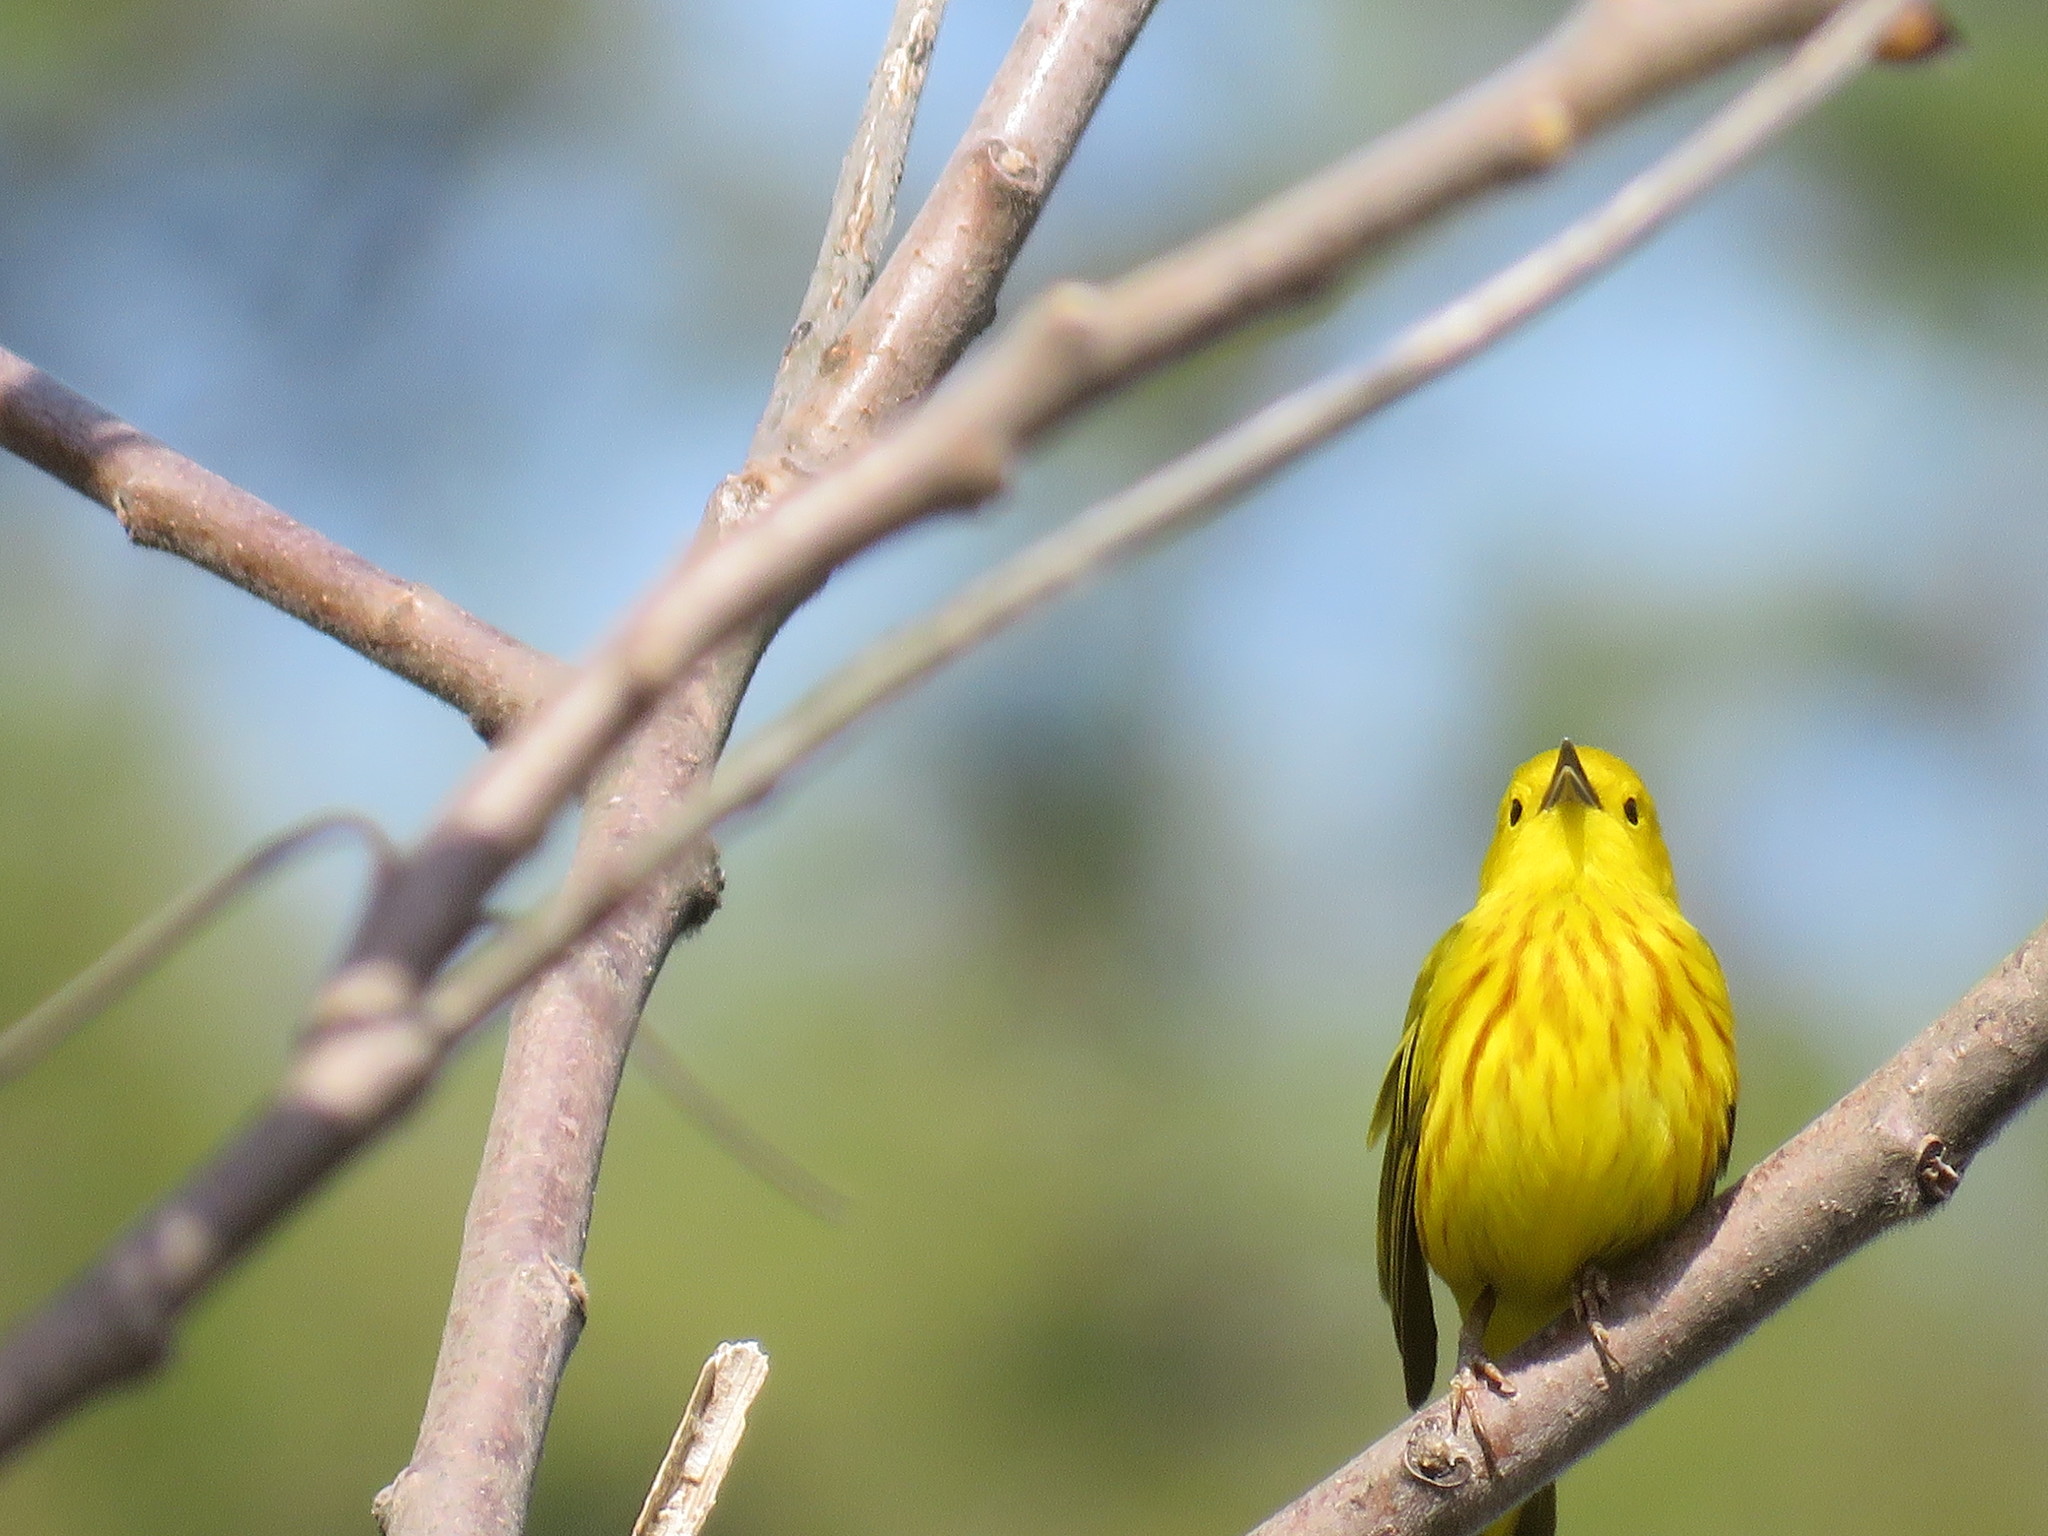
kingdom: Animalia
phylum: Chordata
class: Aves
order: Passeriformes
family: Parulidae
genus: Setophaga
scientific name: Setophaga petechia
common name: Yellow warbler
